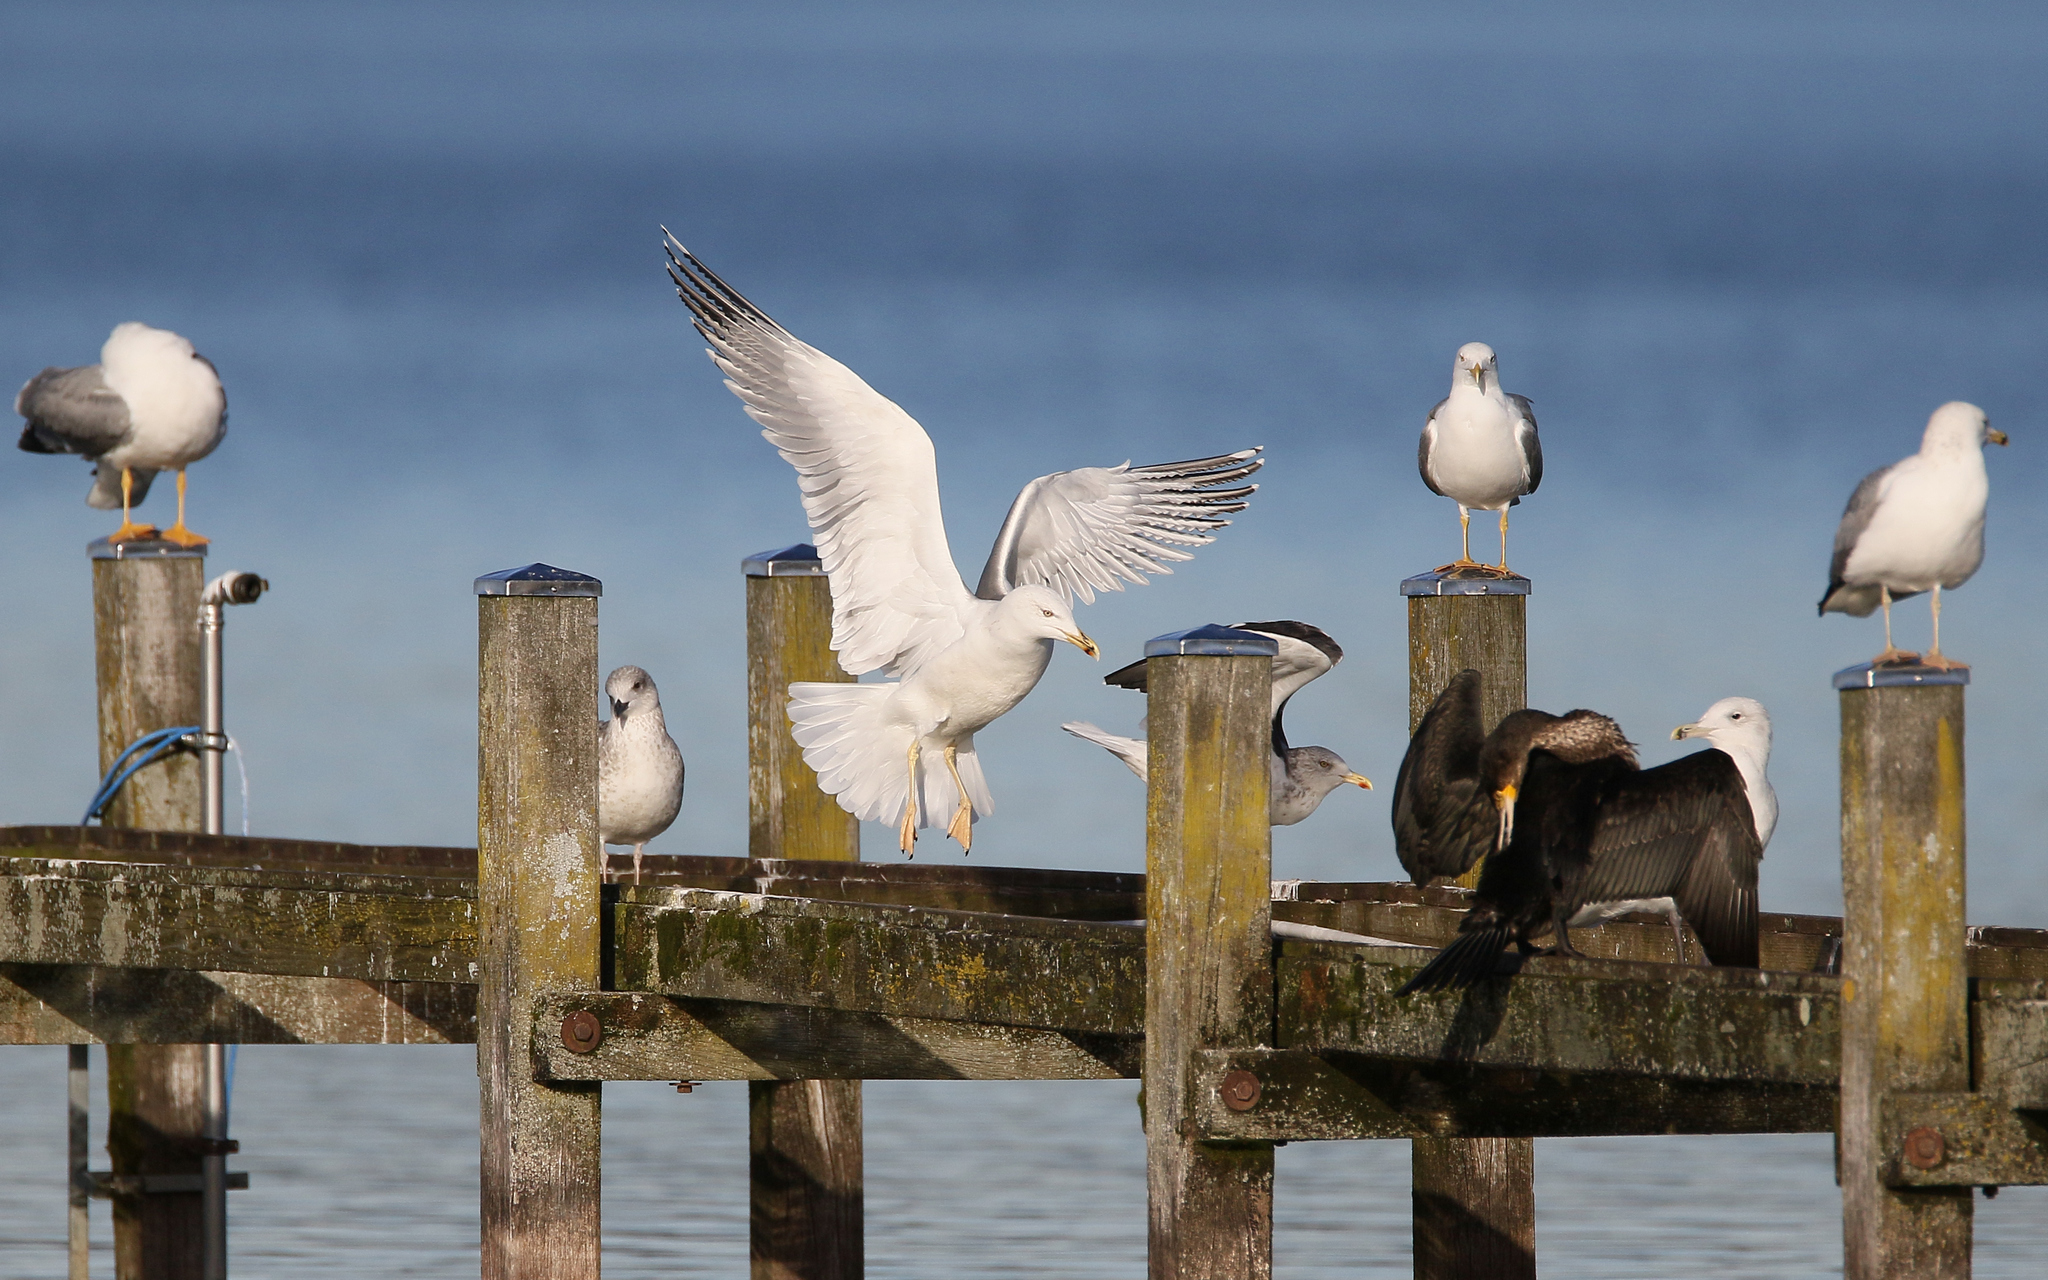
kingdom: Animalia
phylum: Chordata
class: Aves
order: Charadriiformes
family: Laridae
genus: Larus
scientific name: Larus cachinnans
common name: Caspian gull
